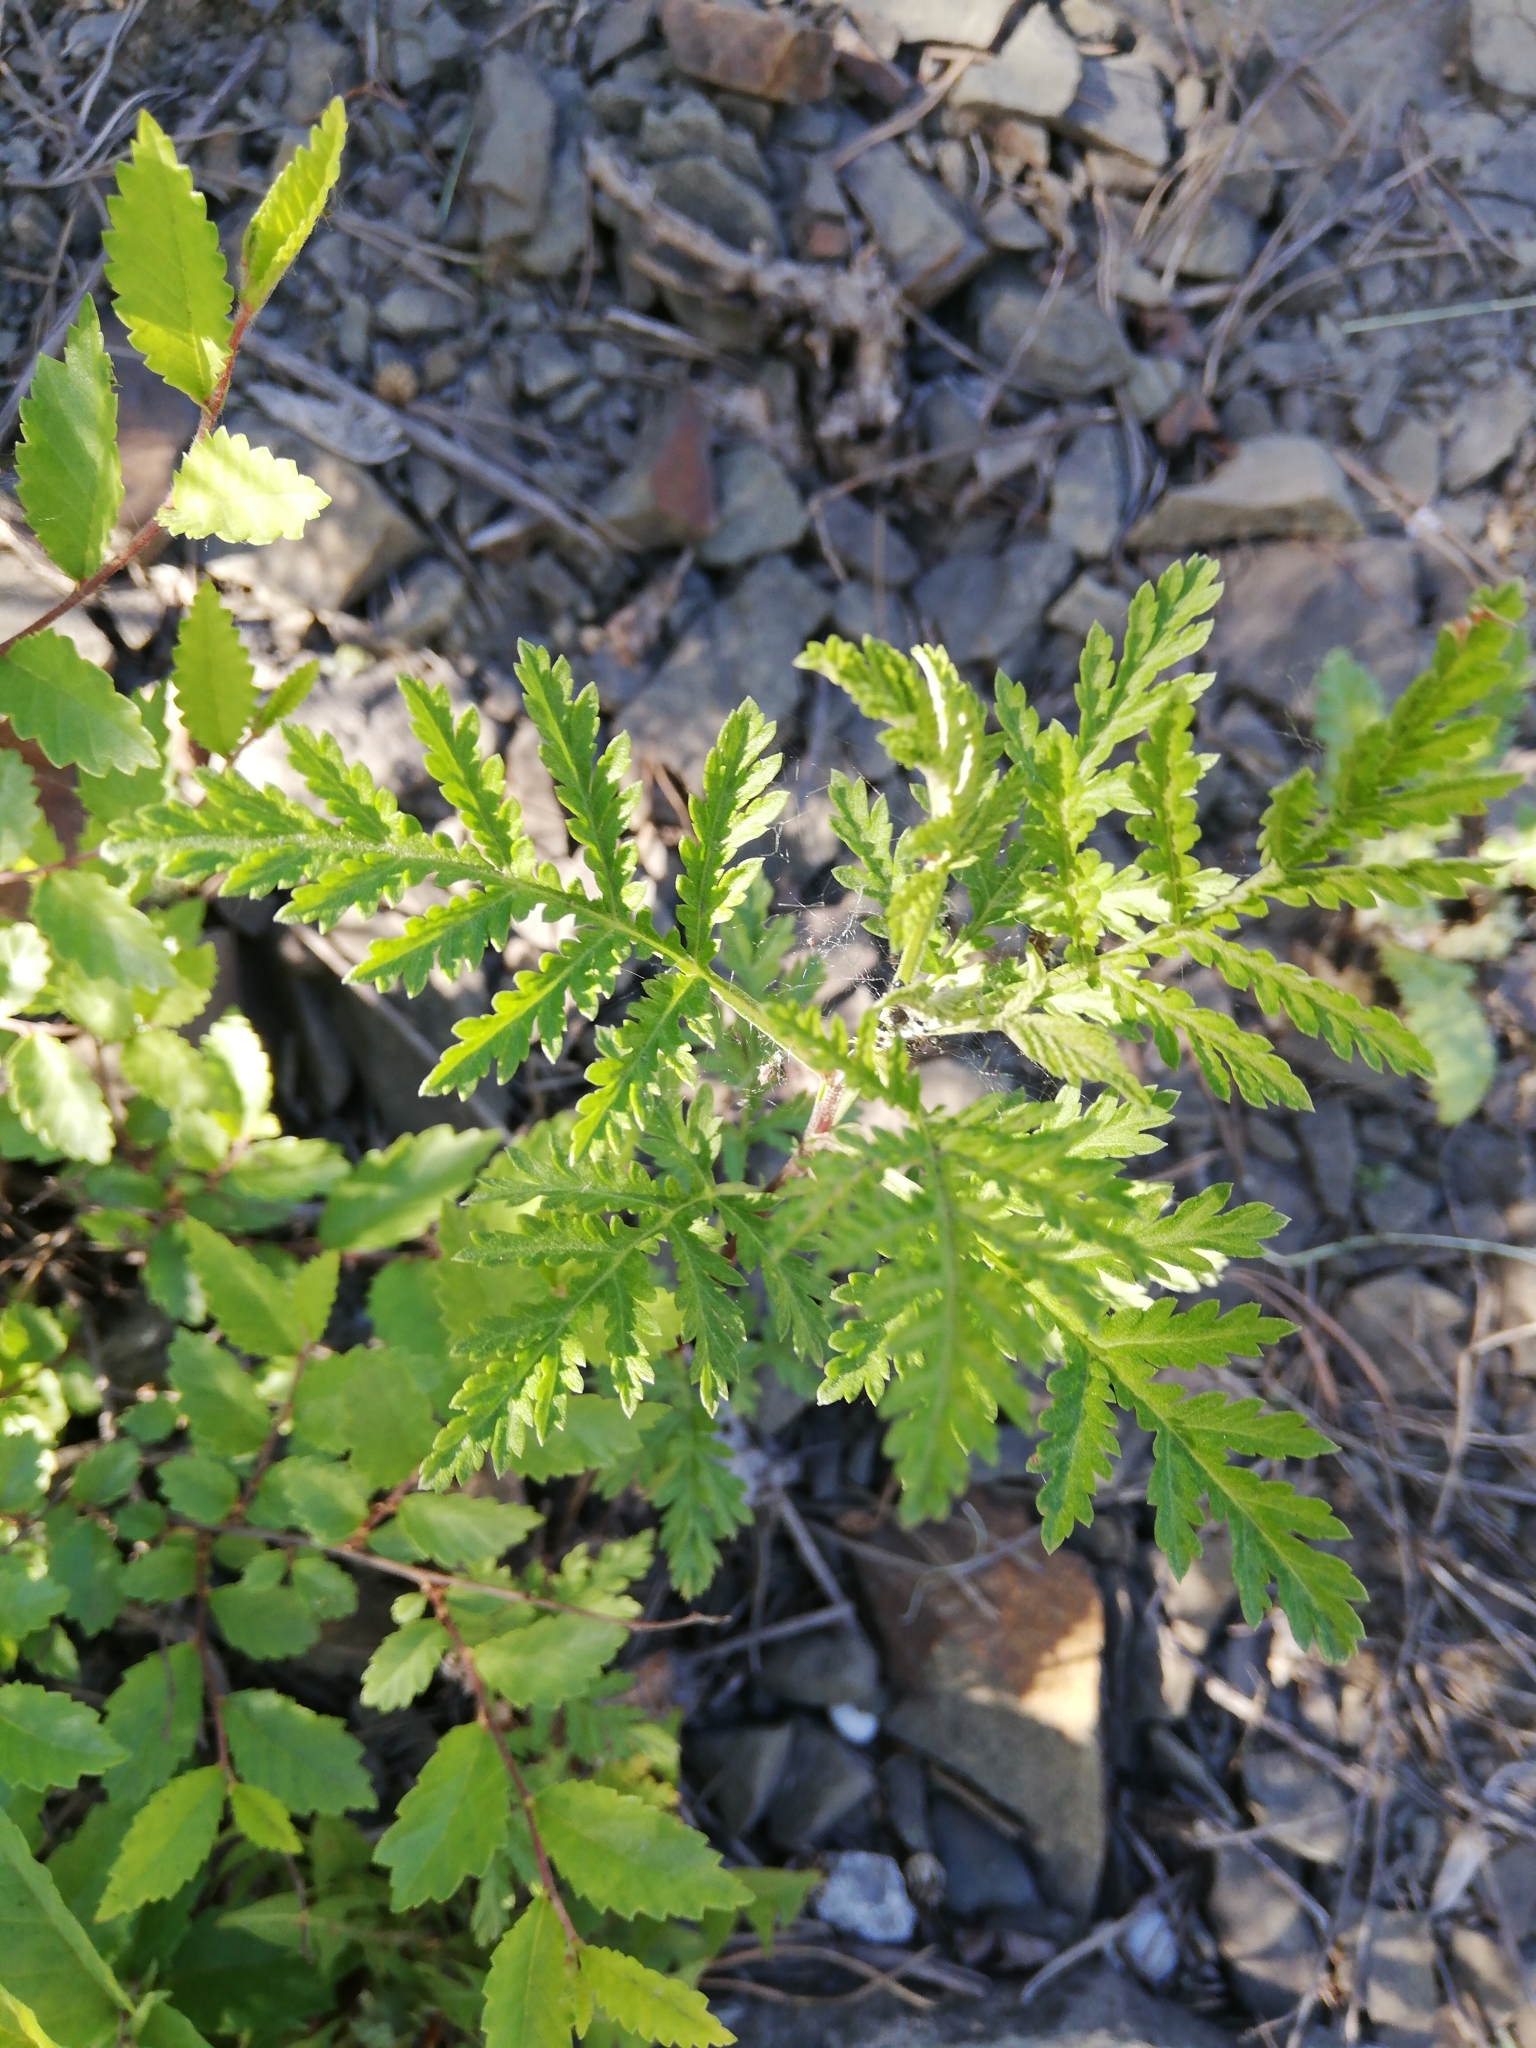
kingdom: Plantae
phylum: Tracheophyta
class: Magnoliopsida
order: Asterales
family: Asteraceae
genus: Tanacetum
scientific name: Tanacetum vulgare
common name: Common tansy
